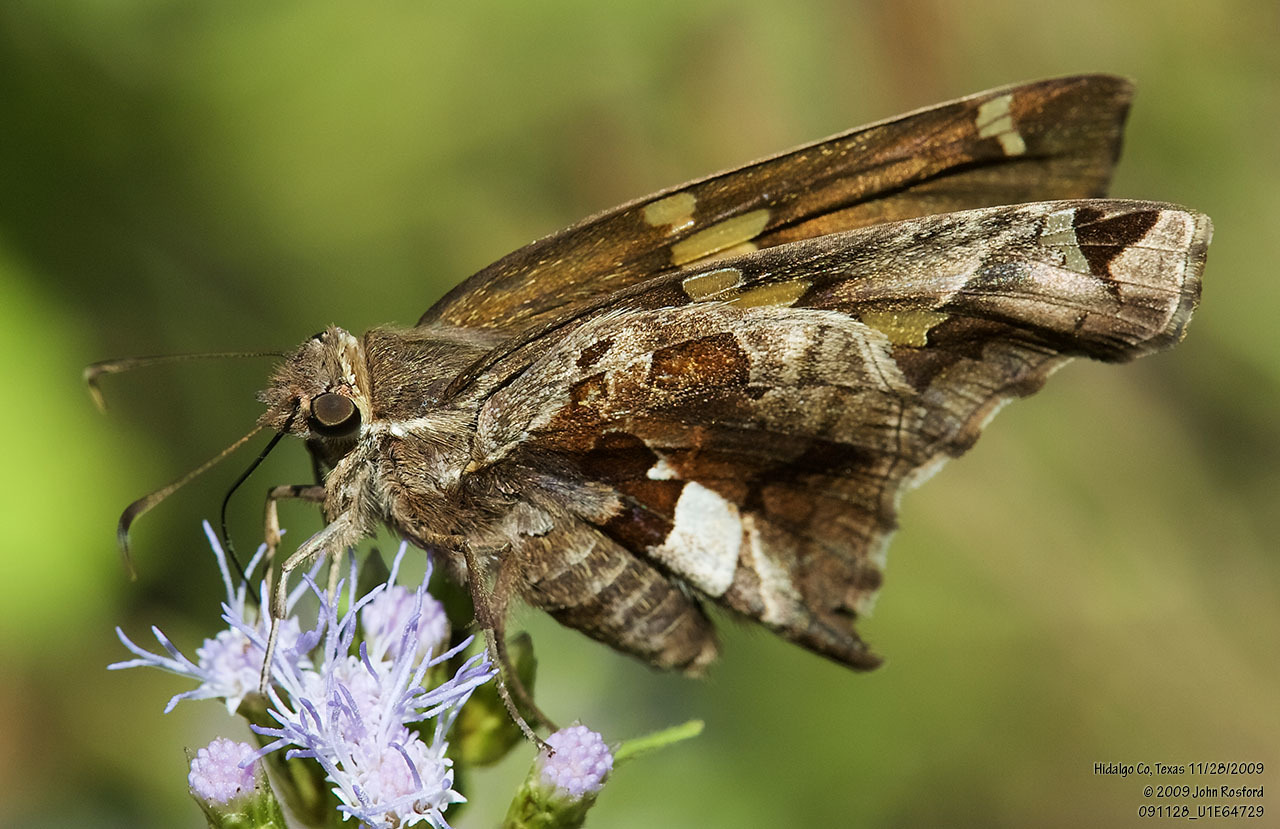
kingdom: Animalia
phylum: Arthropoda
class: Insecta
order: Lepidoptera
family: Hesperiidae
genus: Chioides
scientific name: Chioides zilpa
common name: Zilpa longtail
